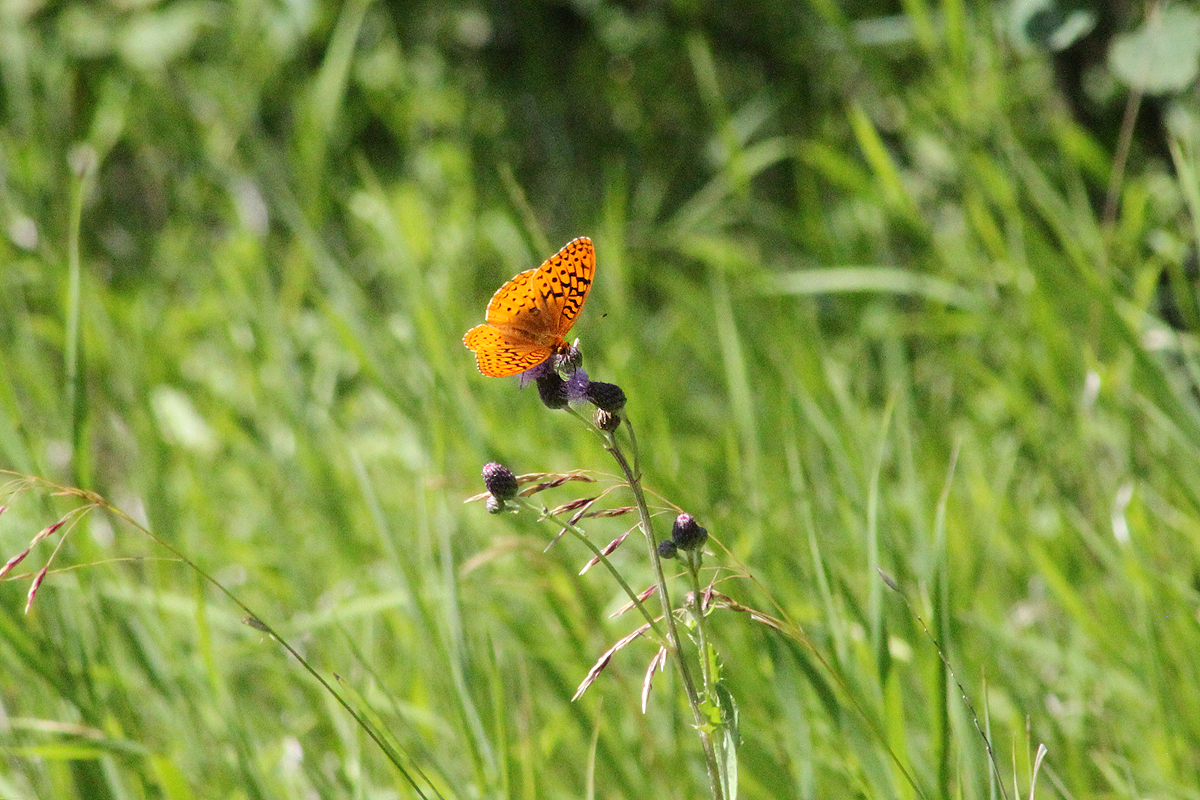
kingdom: Animalia
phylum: Arthropoda
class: Insecta
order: Lepidoptera
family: Nymphalidae
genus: Speyeria
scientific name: Speyeria cybele
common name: Great spangled fritillary
